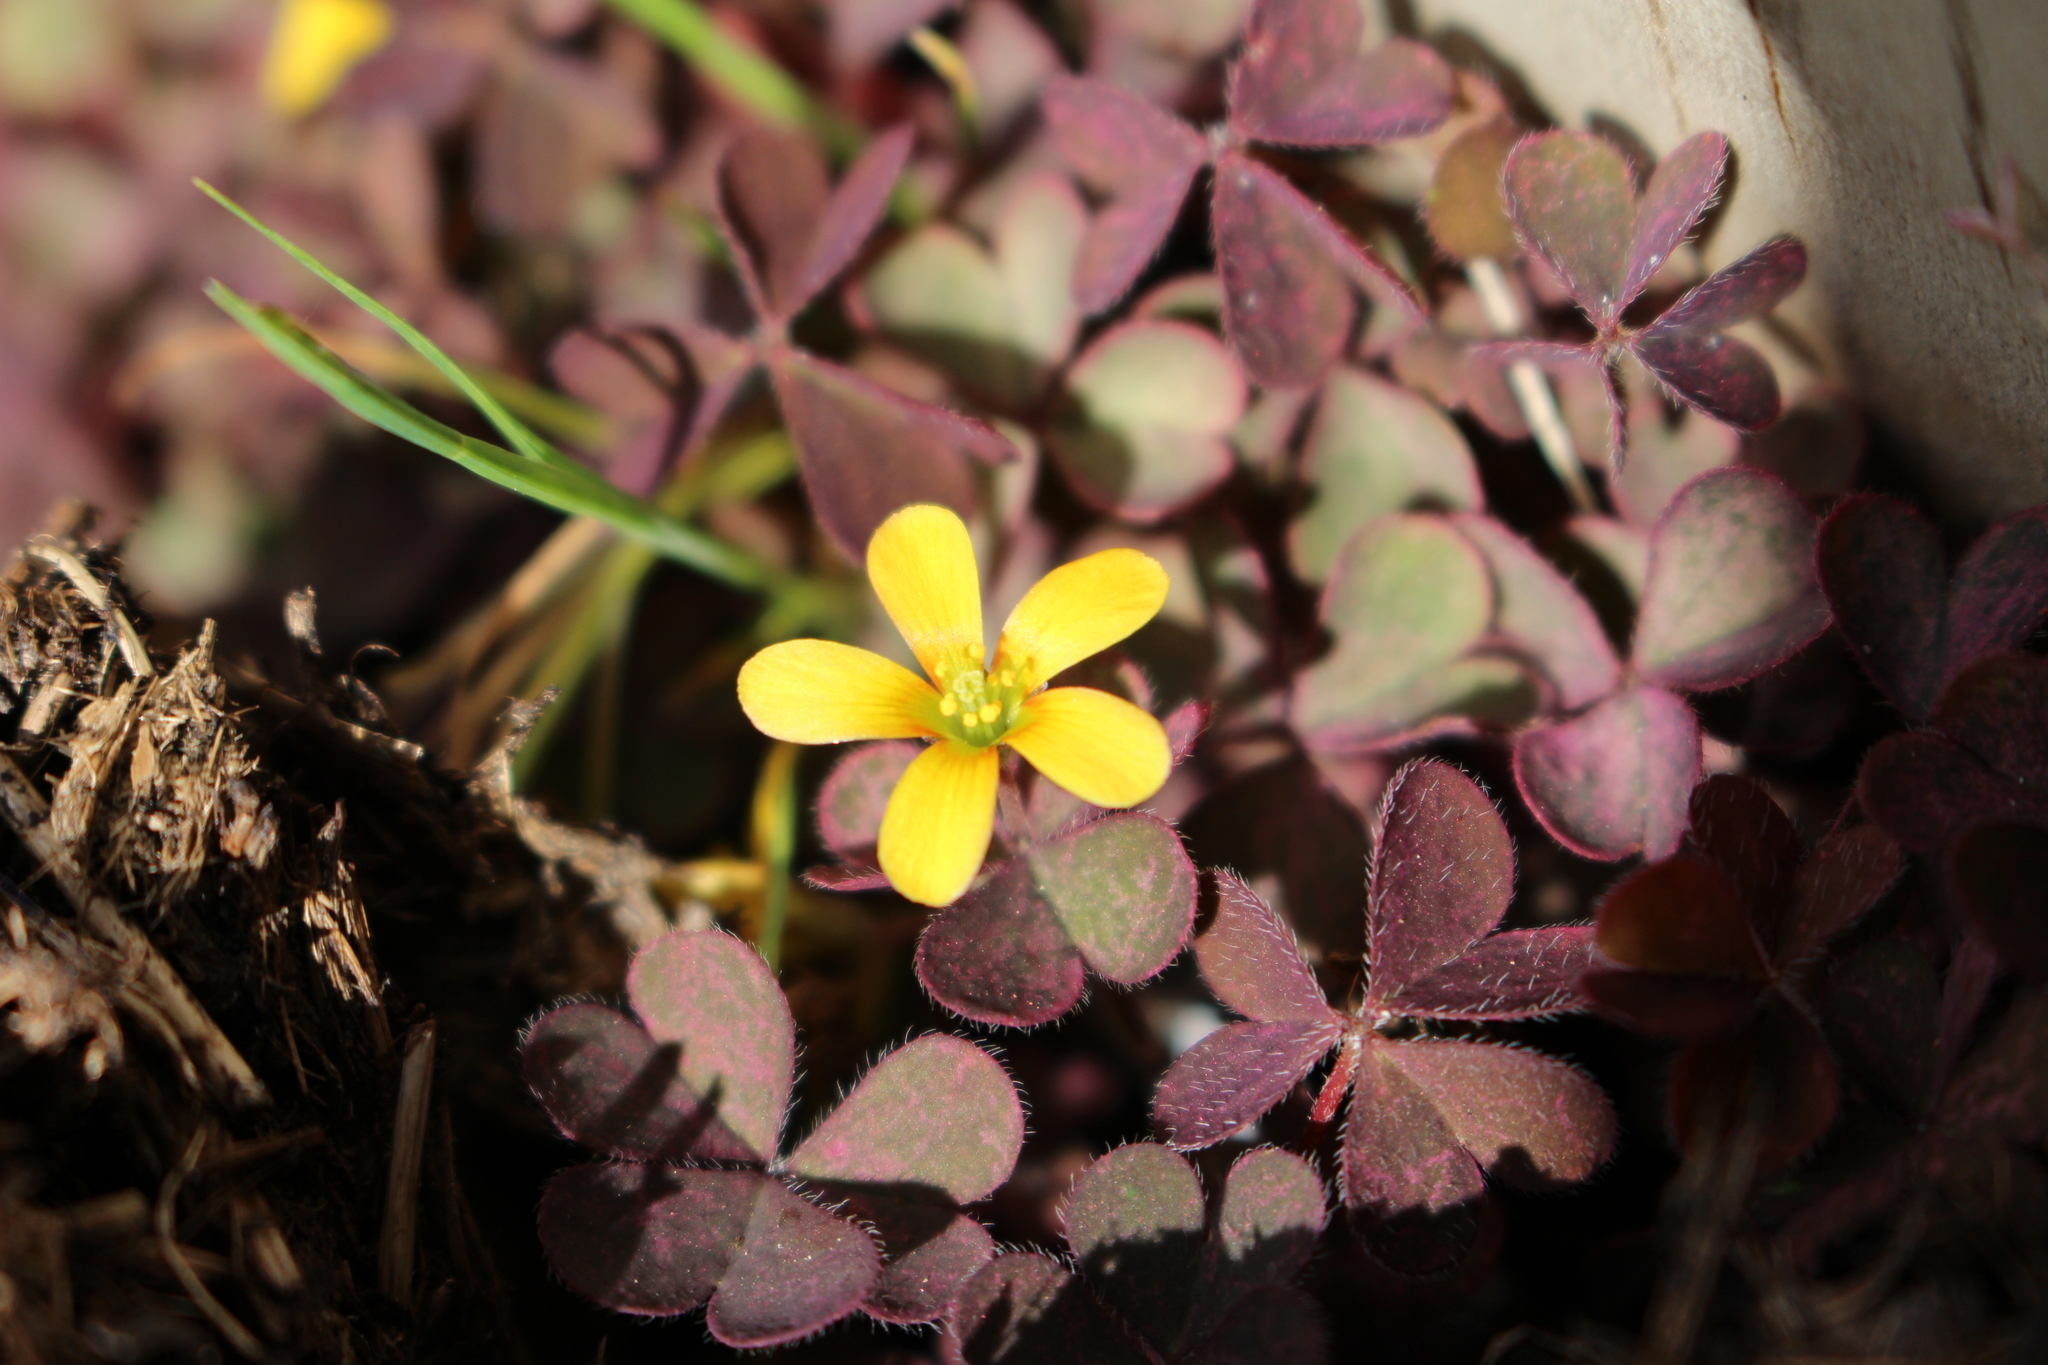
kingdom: Plantae
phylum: Tracheophyta
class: Magnoliopsida
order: Oxalidales
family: Oxalidaceae
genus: Oxalis
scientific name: Oxalis corniculata
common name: Procumbent yellow-sorrel
